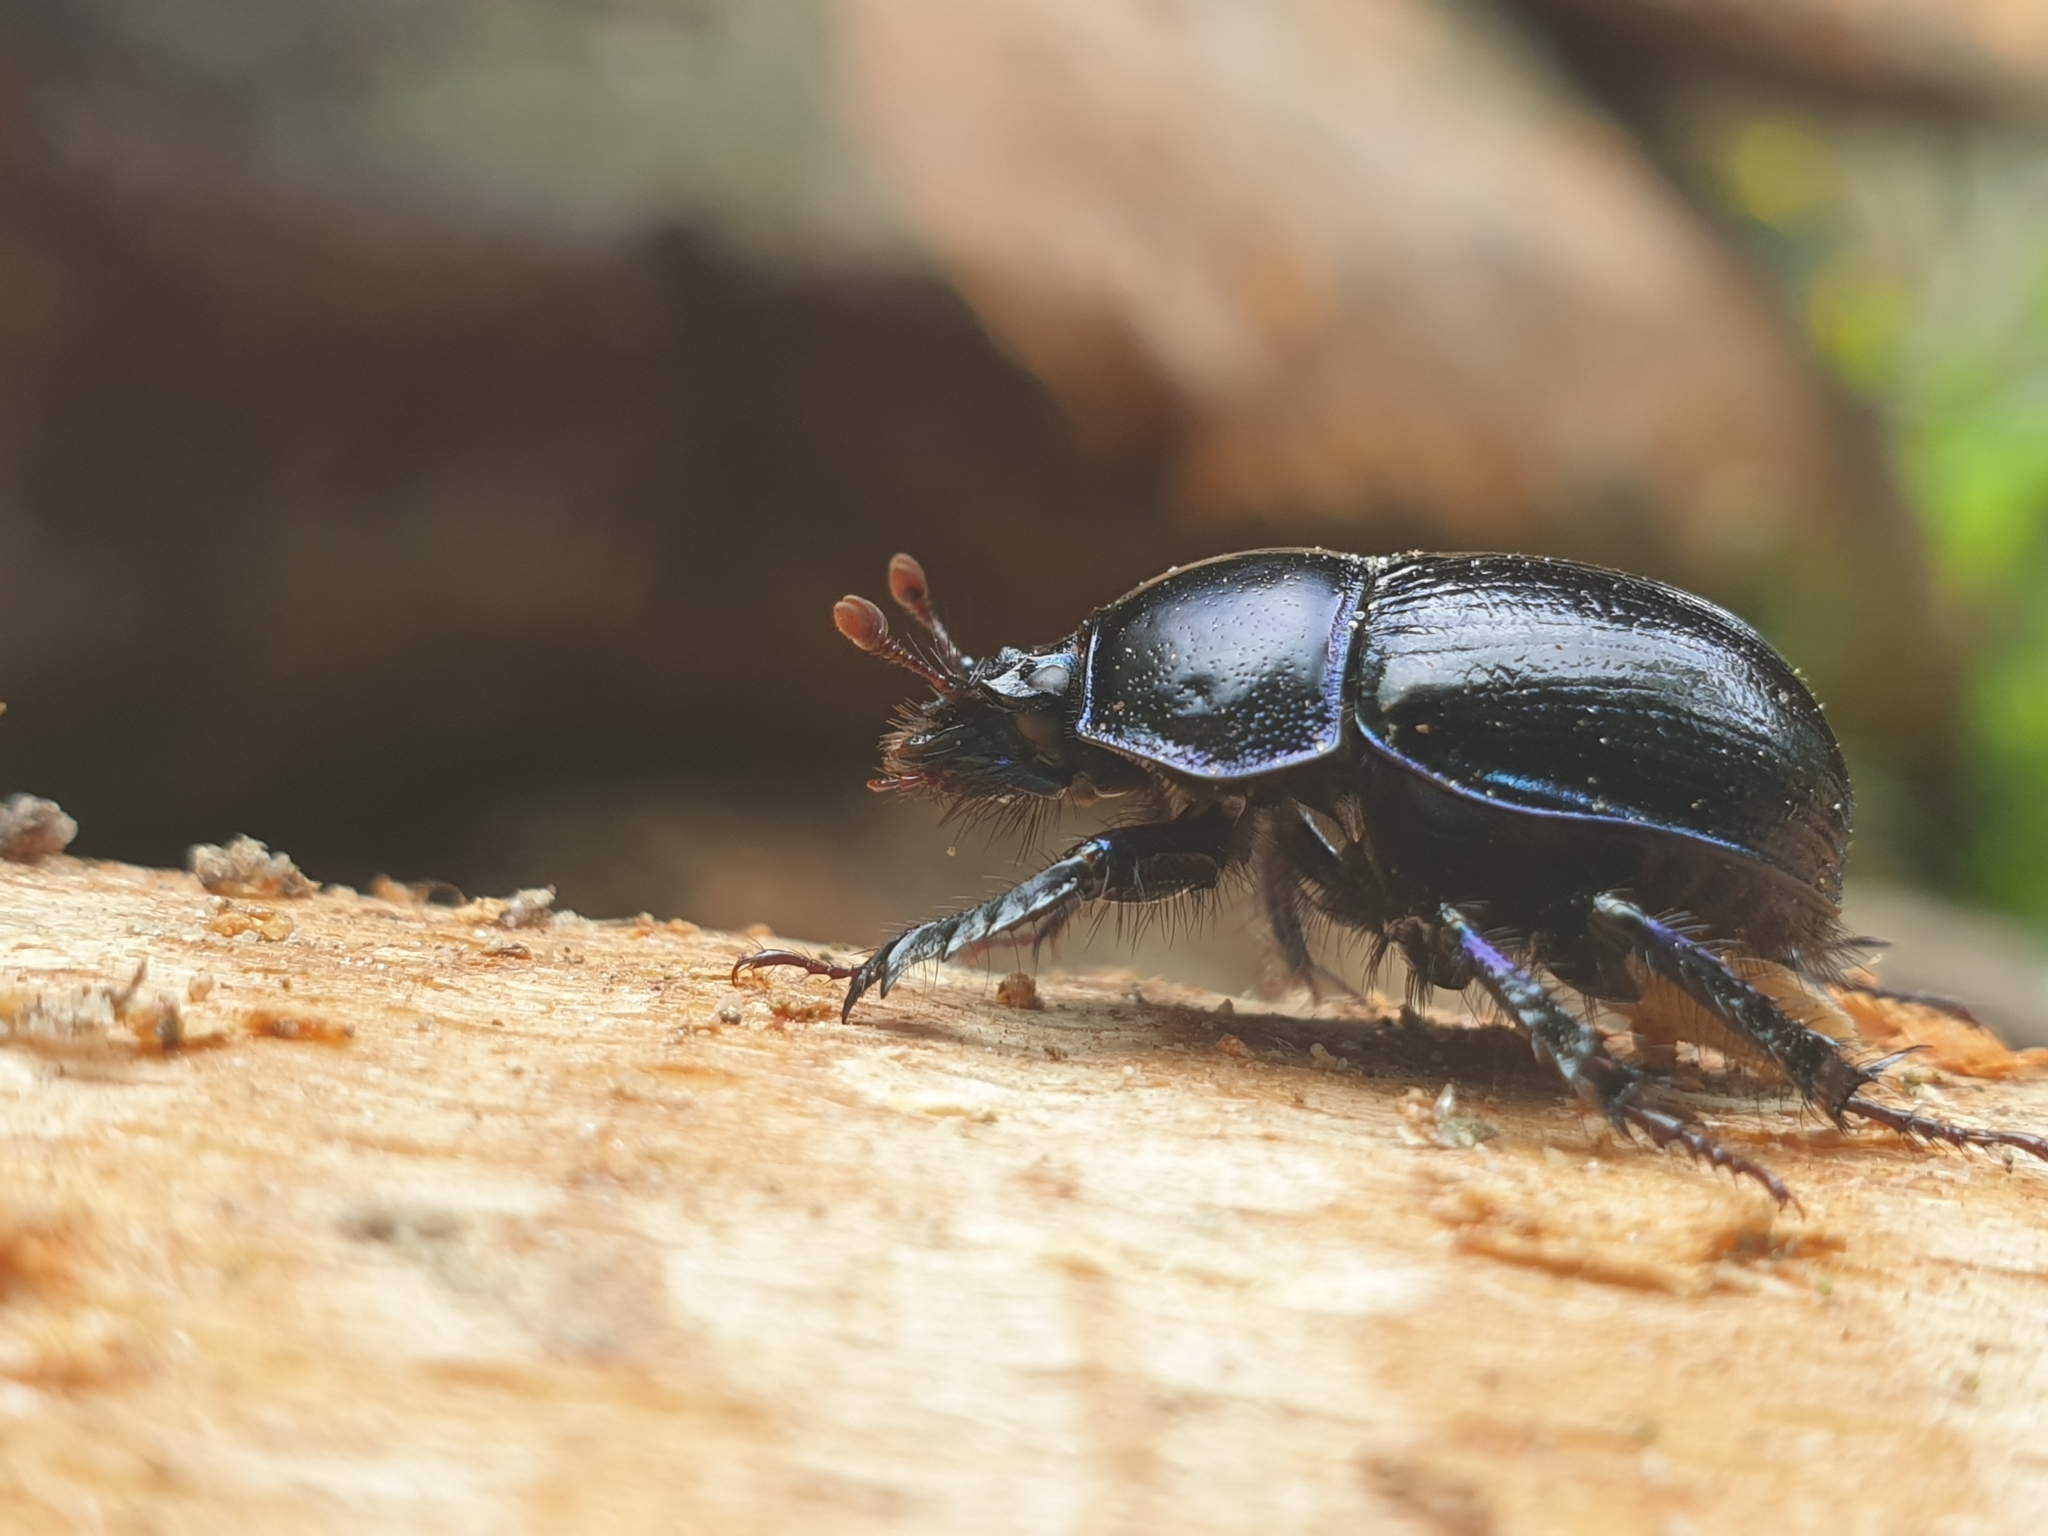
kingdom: Animalia
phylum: Arthropoda
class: Insecta
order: Coleoptera
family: Geotrupidae
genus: Anoplotrupes
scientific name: Anoplotrupes stercorosus
